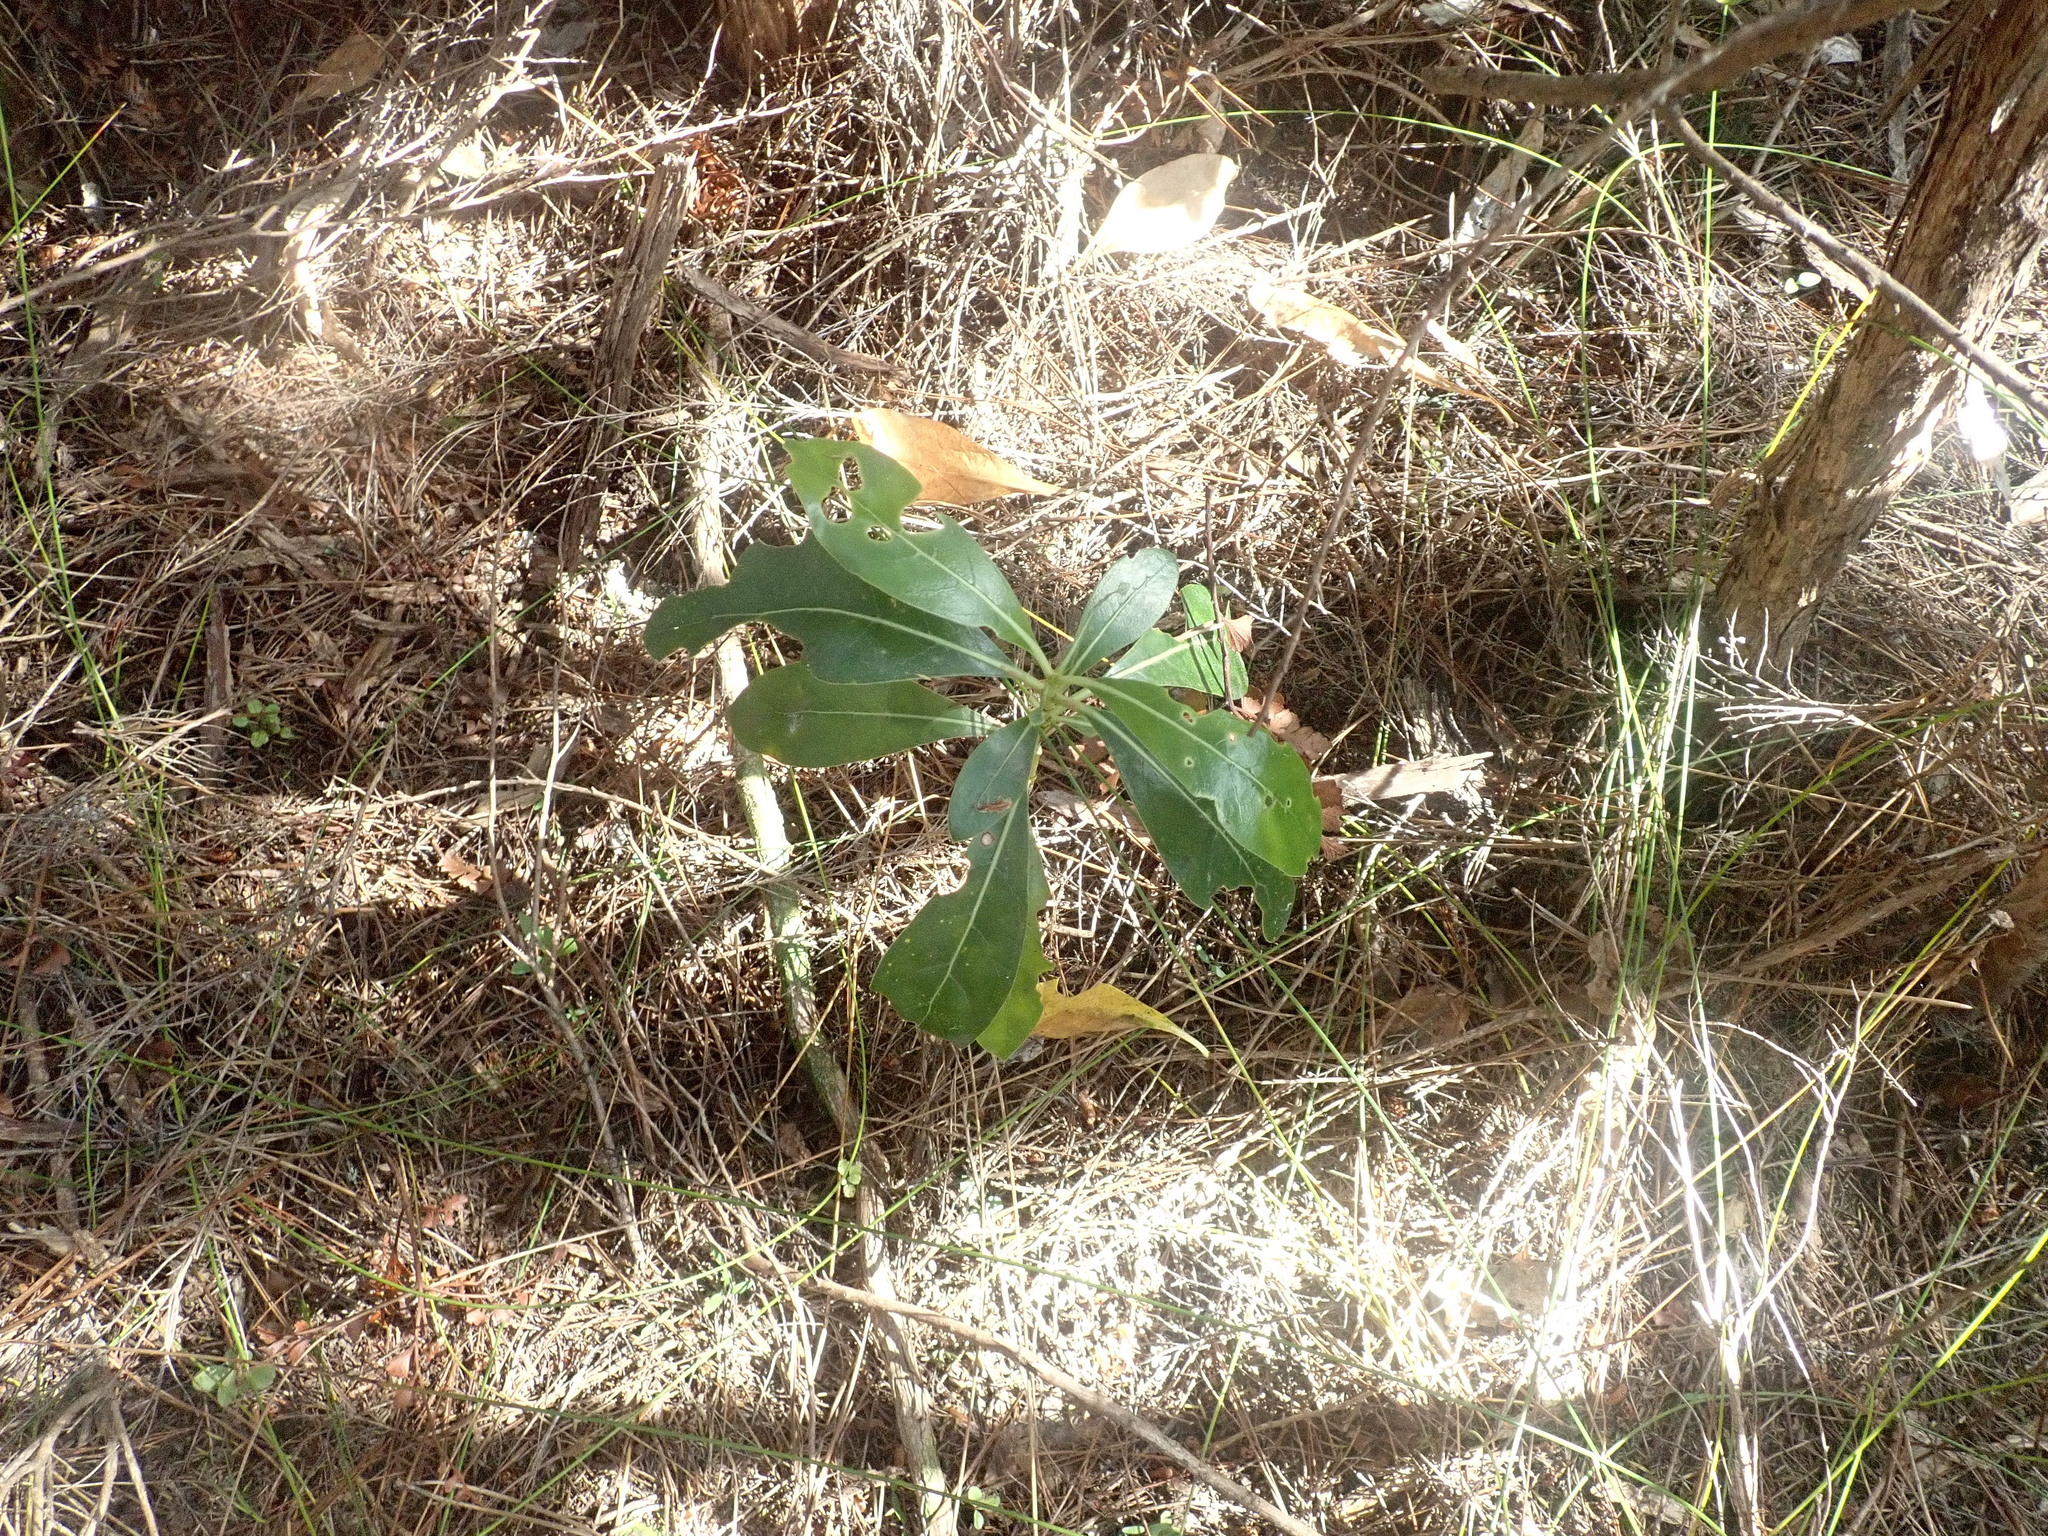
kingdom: Plantae
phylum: Tracheophyta
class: Magnoliopsida
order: Gentianales
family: Rubiaceae
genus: Coprosma
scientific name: Coprosma lucida
